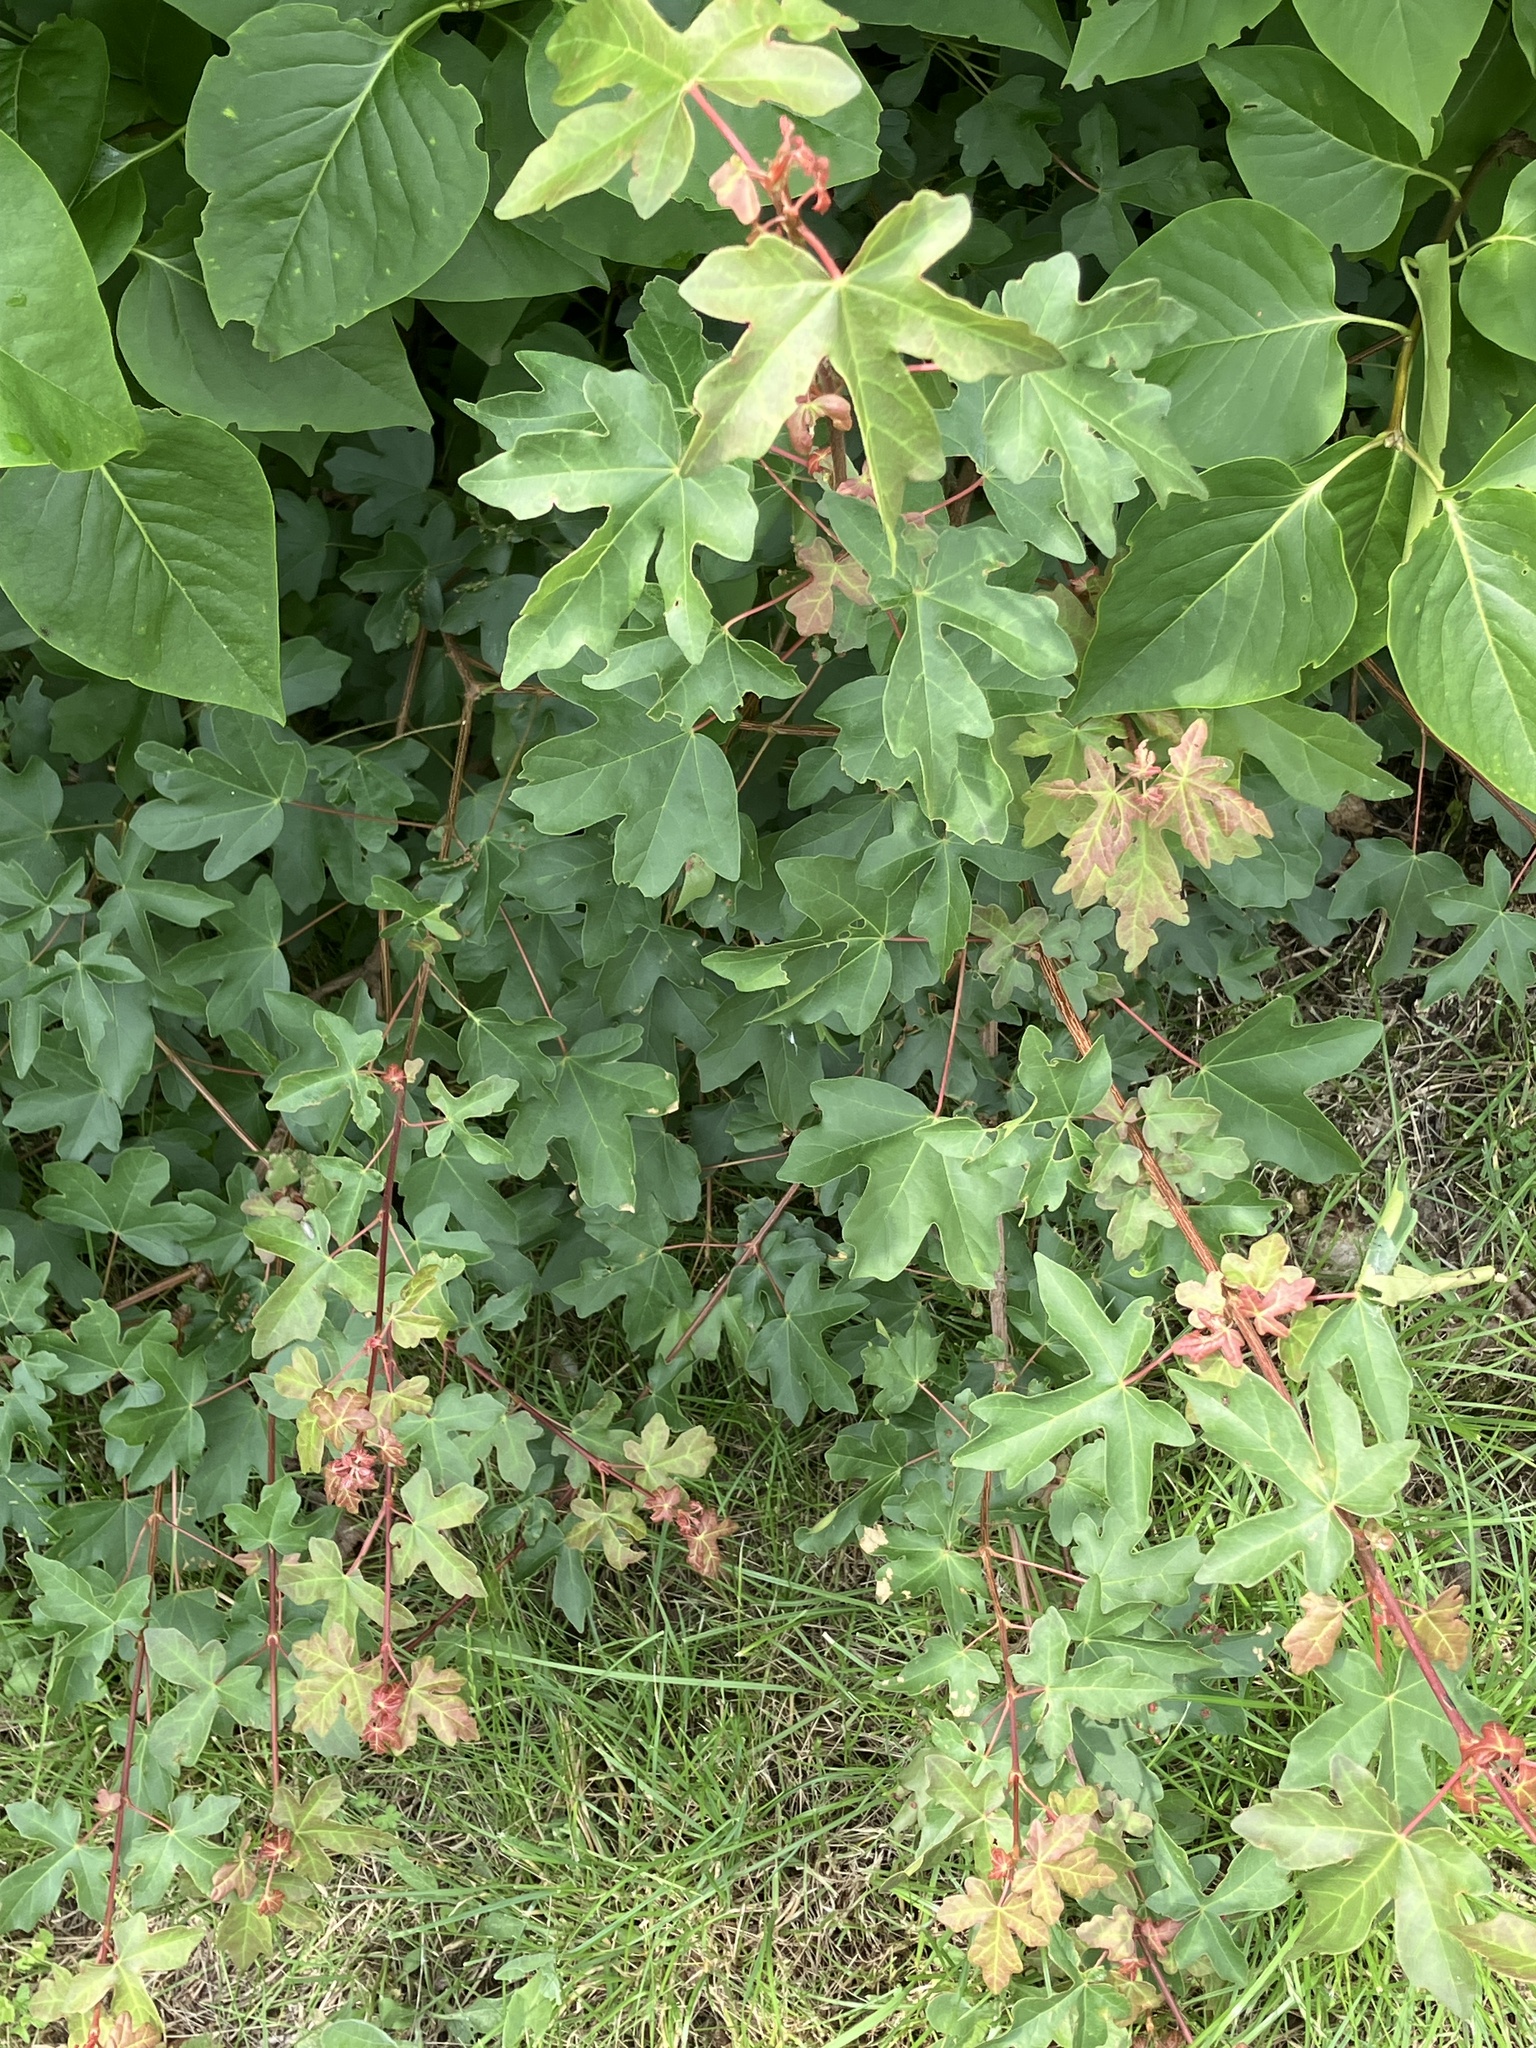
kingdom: Plantae
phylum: Tracheophyta
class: Magnoliopsida
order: Sapindales
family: Sapindaceae
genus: Acer
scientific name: Acer campestre
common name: Field maple
